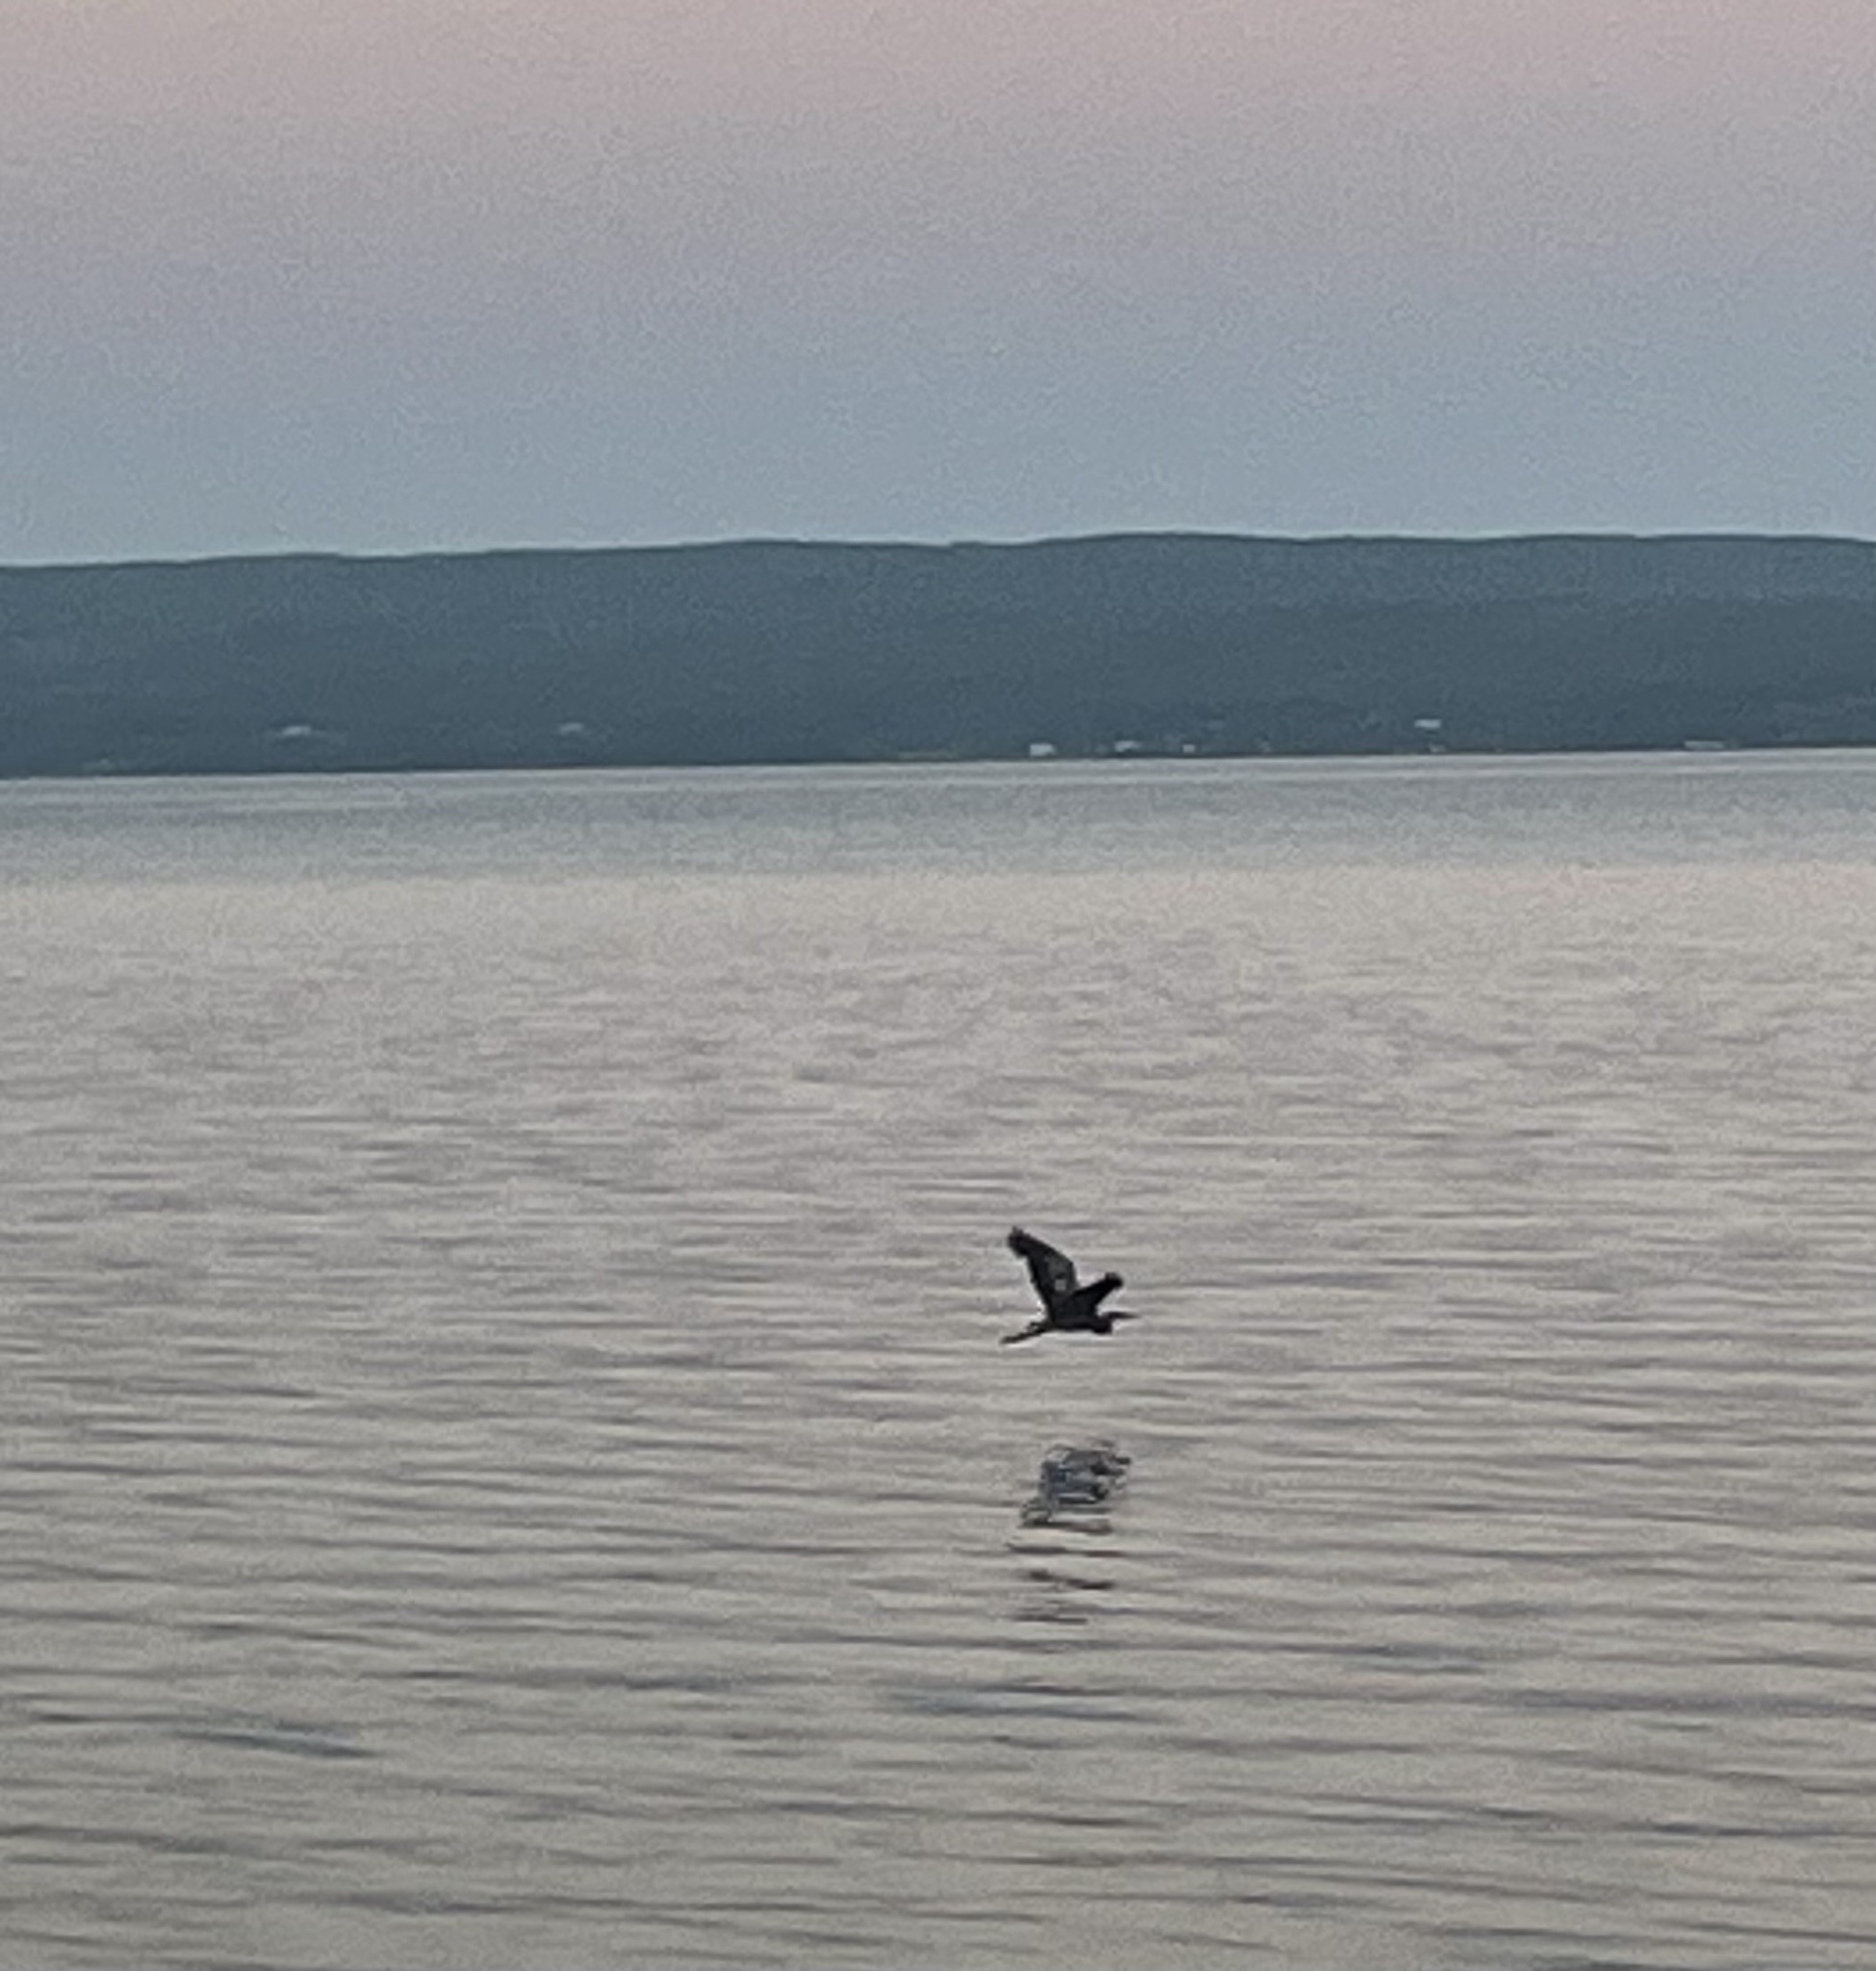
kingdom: Animalia
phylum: Chordata
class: Aves
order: Pelecaniformes
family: Ardeidae
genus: Ardea
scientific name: Ardea herodias
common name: Great blue heron
